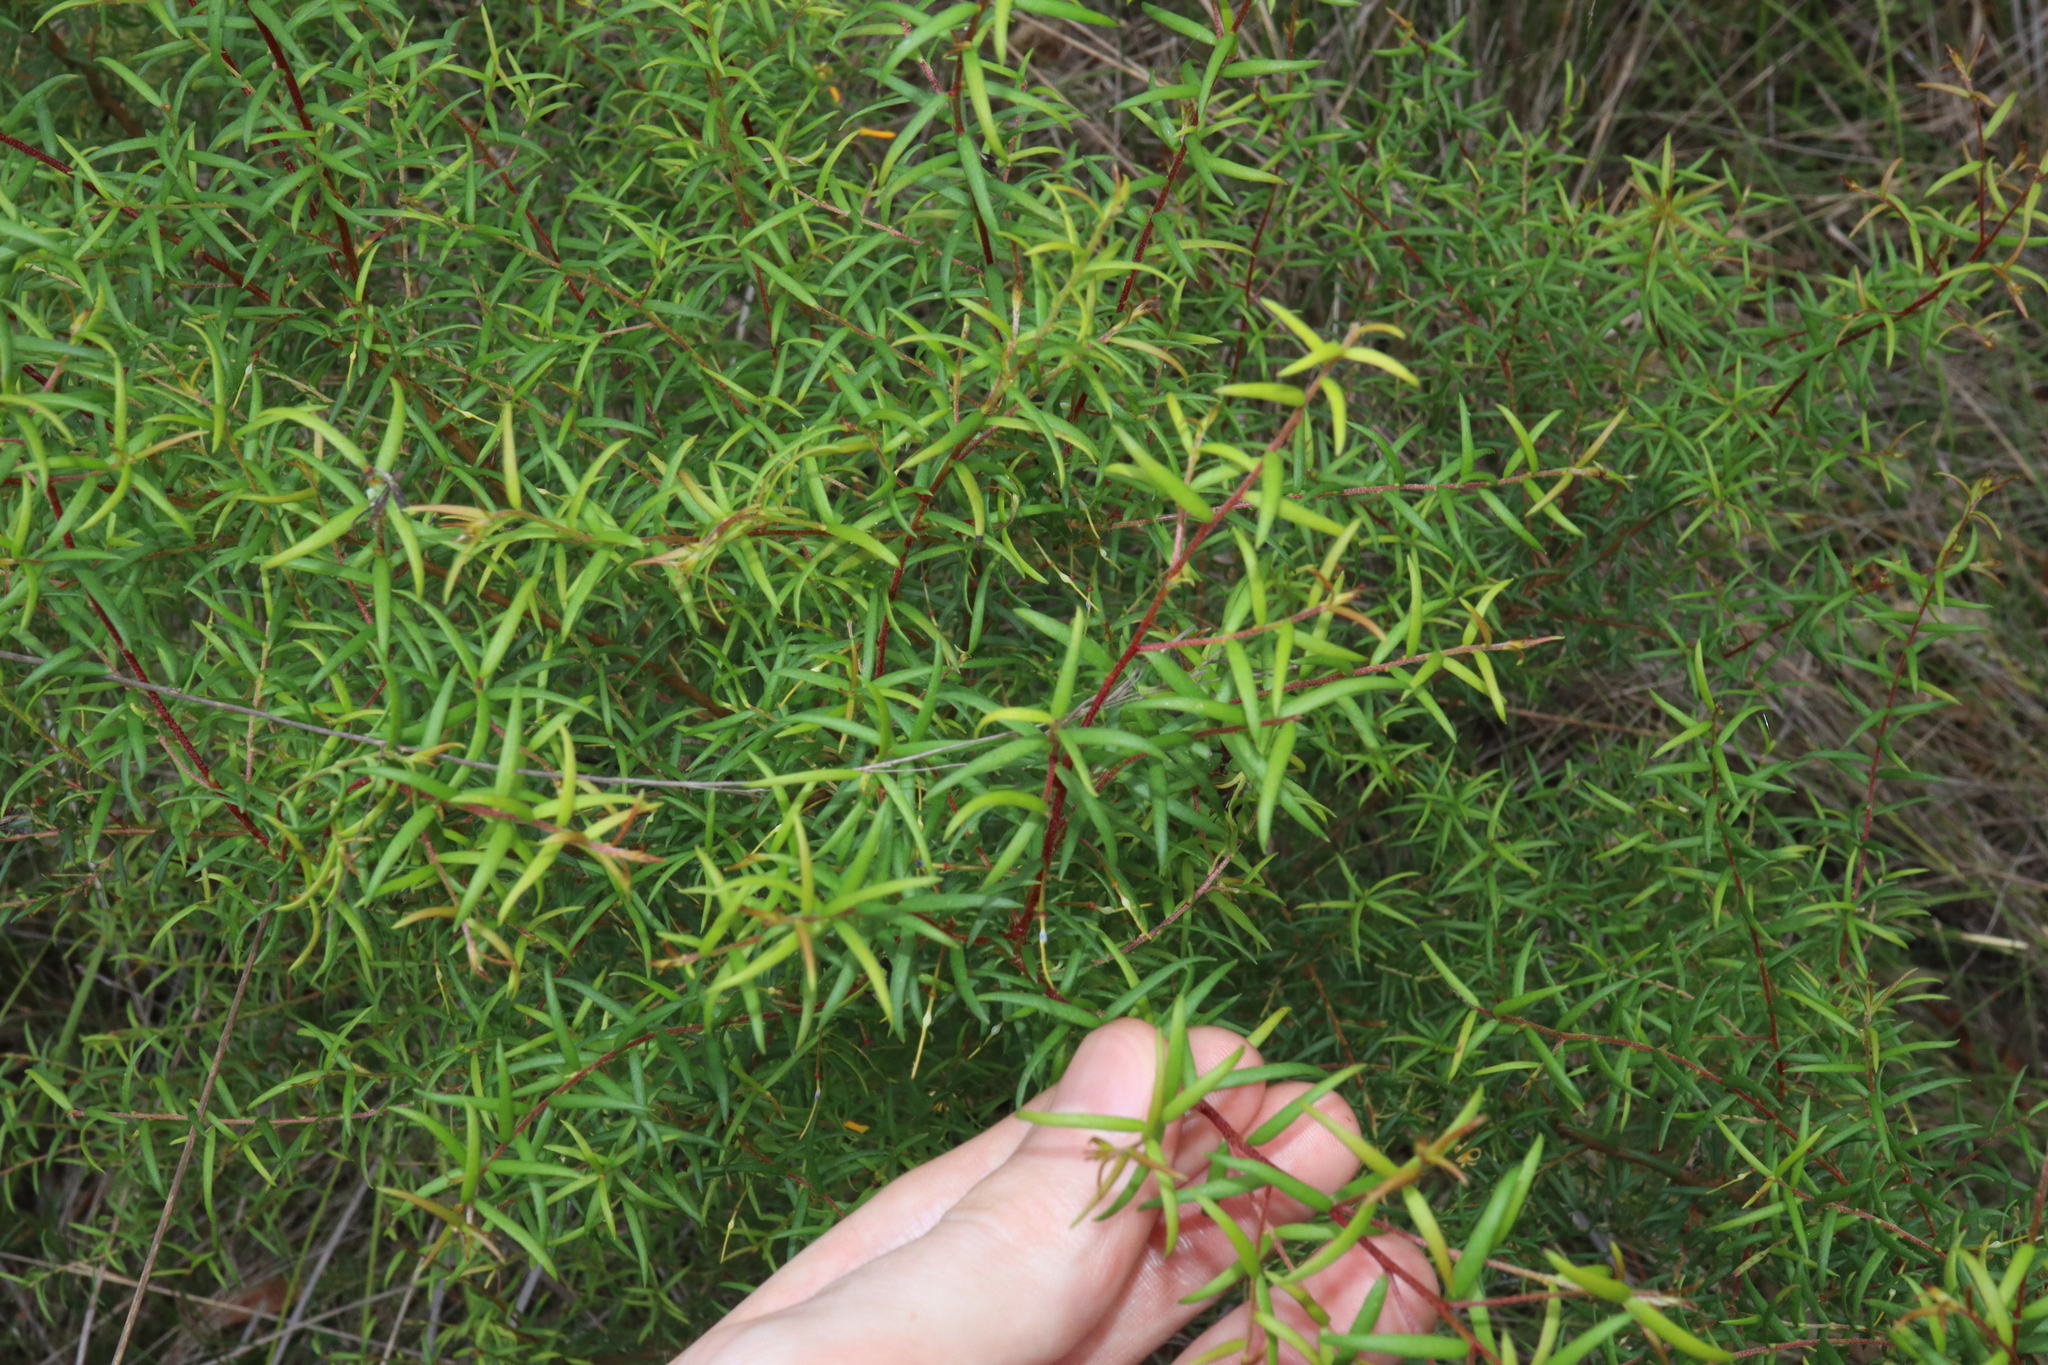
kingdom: Plantae
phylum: Tracheophyta
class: Magnoliopsida
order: Proteales
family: Proteaceae
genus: Persoonia
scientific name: Persoonia bargoensis
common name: Bargo geebung
